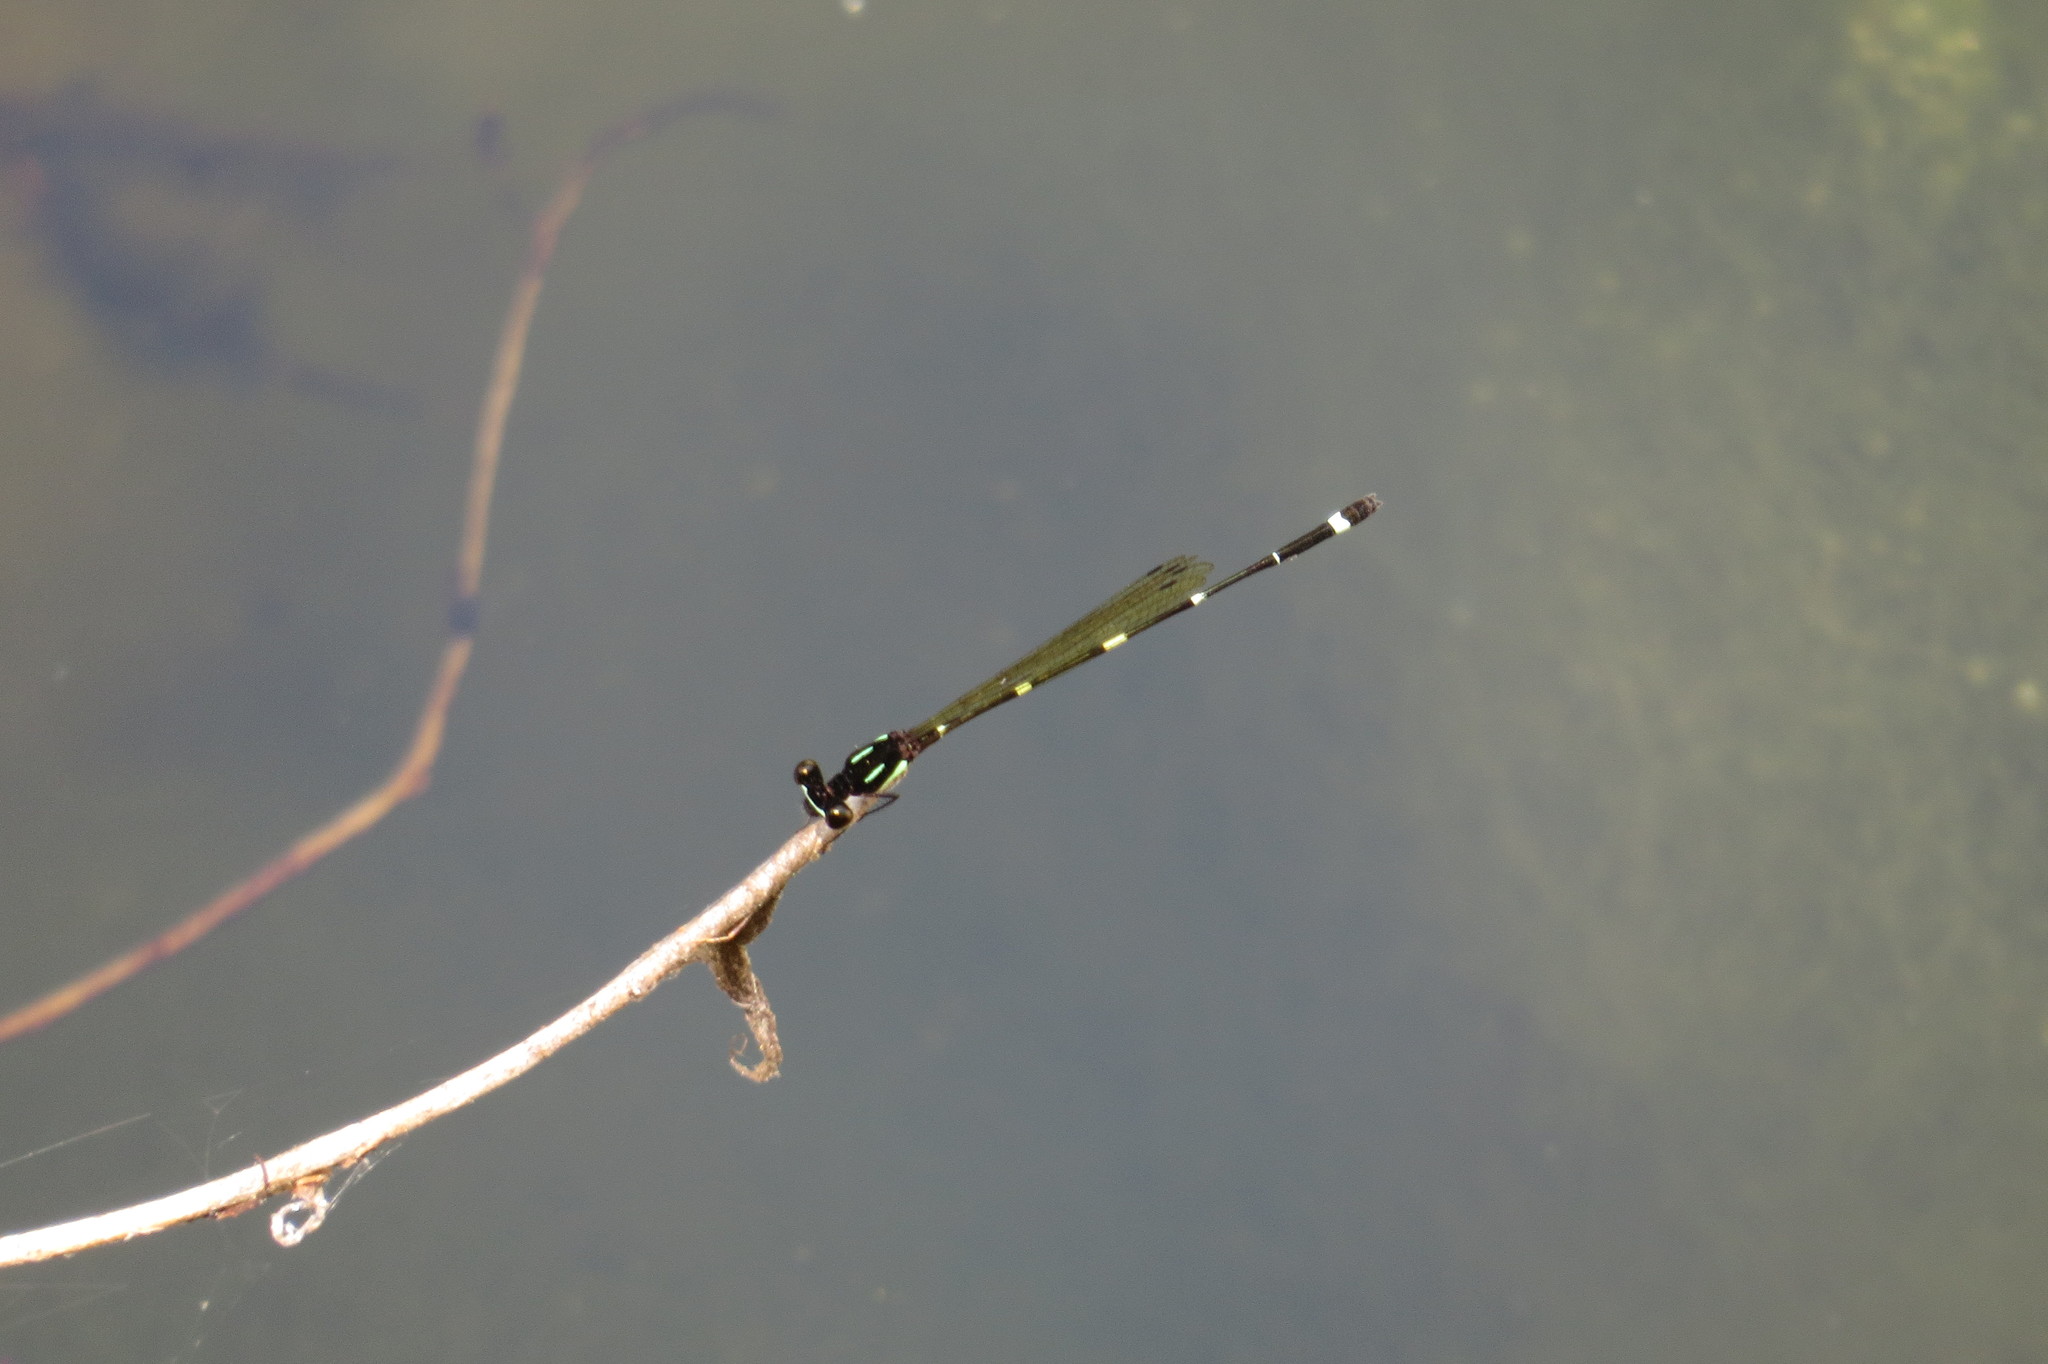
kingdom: Animalia
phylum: Arthropoda
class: Insecta
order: Odonata
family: Platycnemididae
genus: Nososticta
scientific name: Nososticta solitaria
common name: Fivespot threadtail
